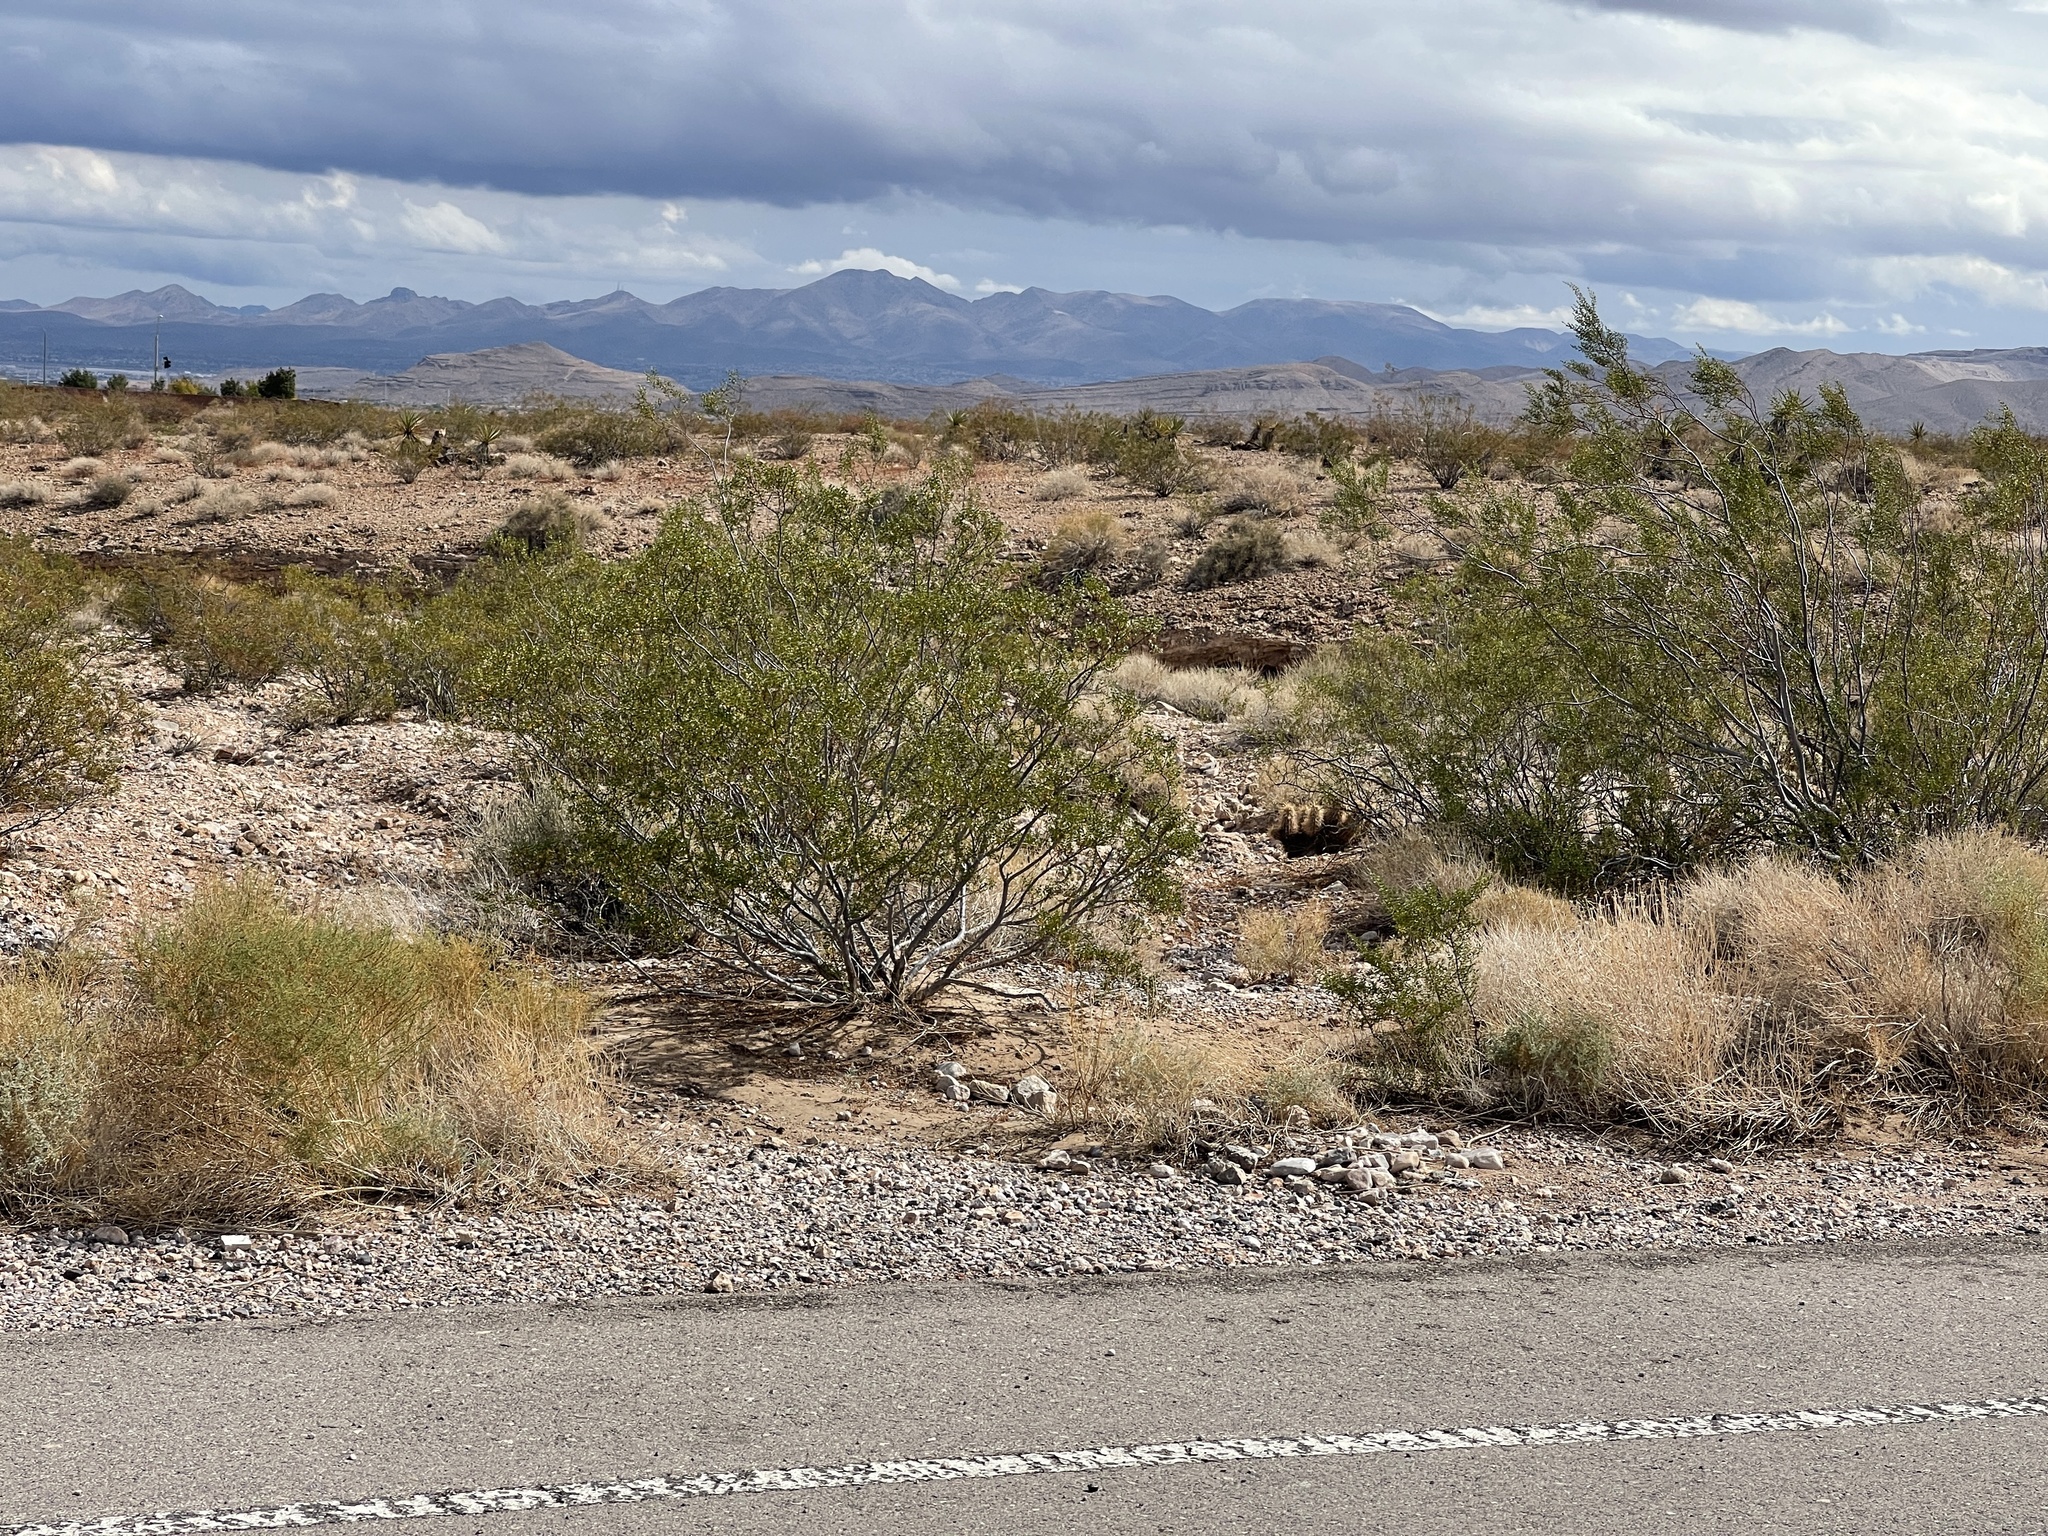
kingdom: Plantae
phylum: Tracheophyta
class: Magnoliopsida
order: Zygophyllales
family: Zygophyllaceae
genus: Larrea
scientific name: Larrea tridentata
